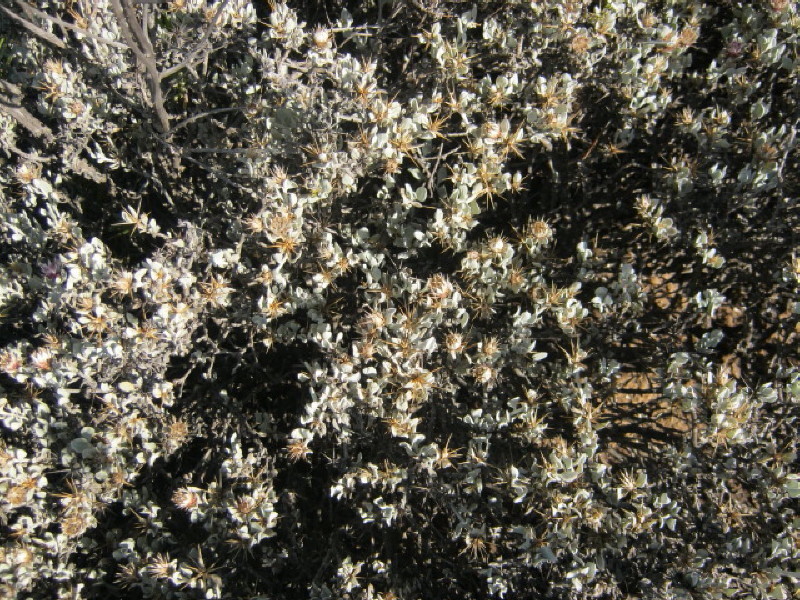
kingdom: Plantae
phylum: Tracheophyta
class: Magnoliopsida
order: Asterales
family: Asteraceae
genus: Macledium
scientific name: Macledium spinosum
